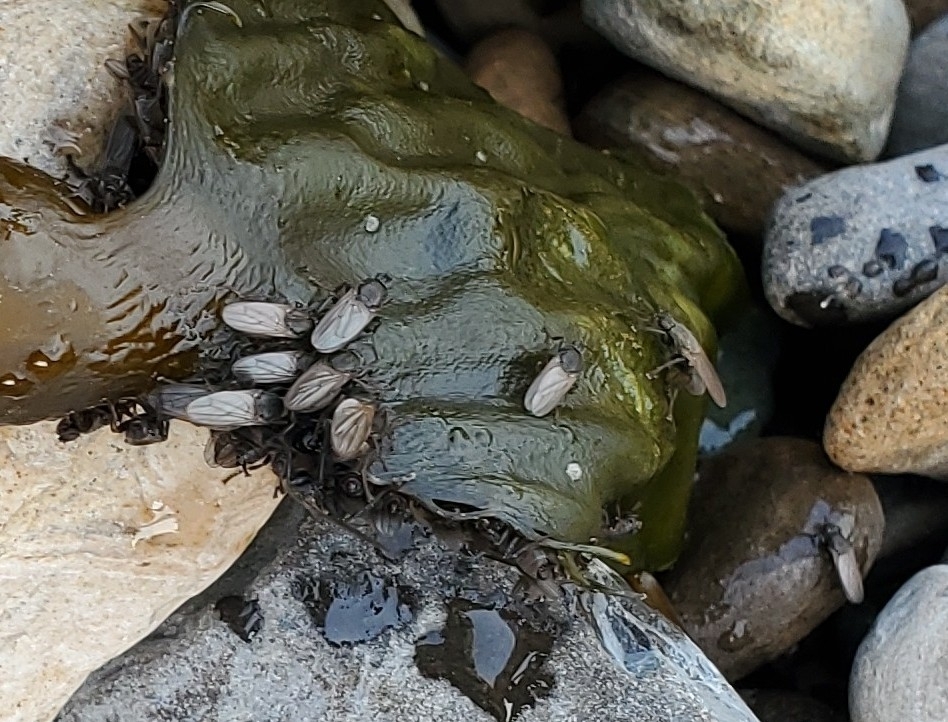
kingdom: Animalia
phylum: Arthropoda
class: Insecta
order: Diptera
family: Coelopidae
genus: Coelopa
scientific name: Coelopa vanduzeei
